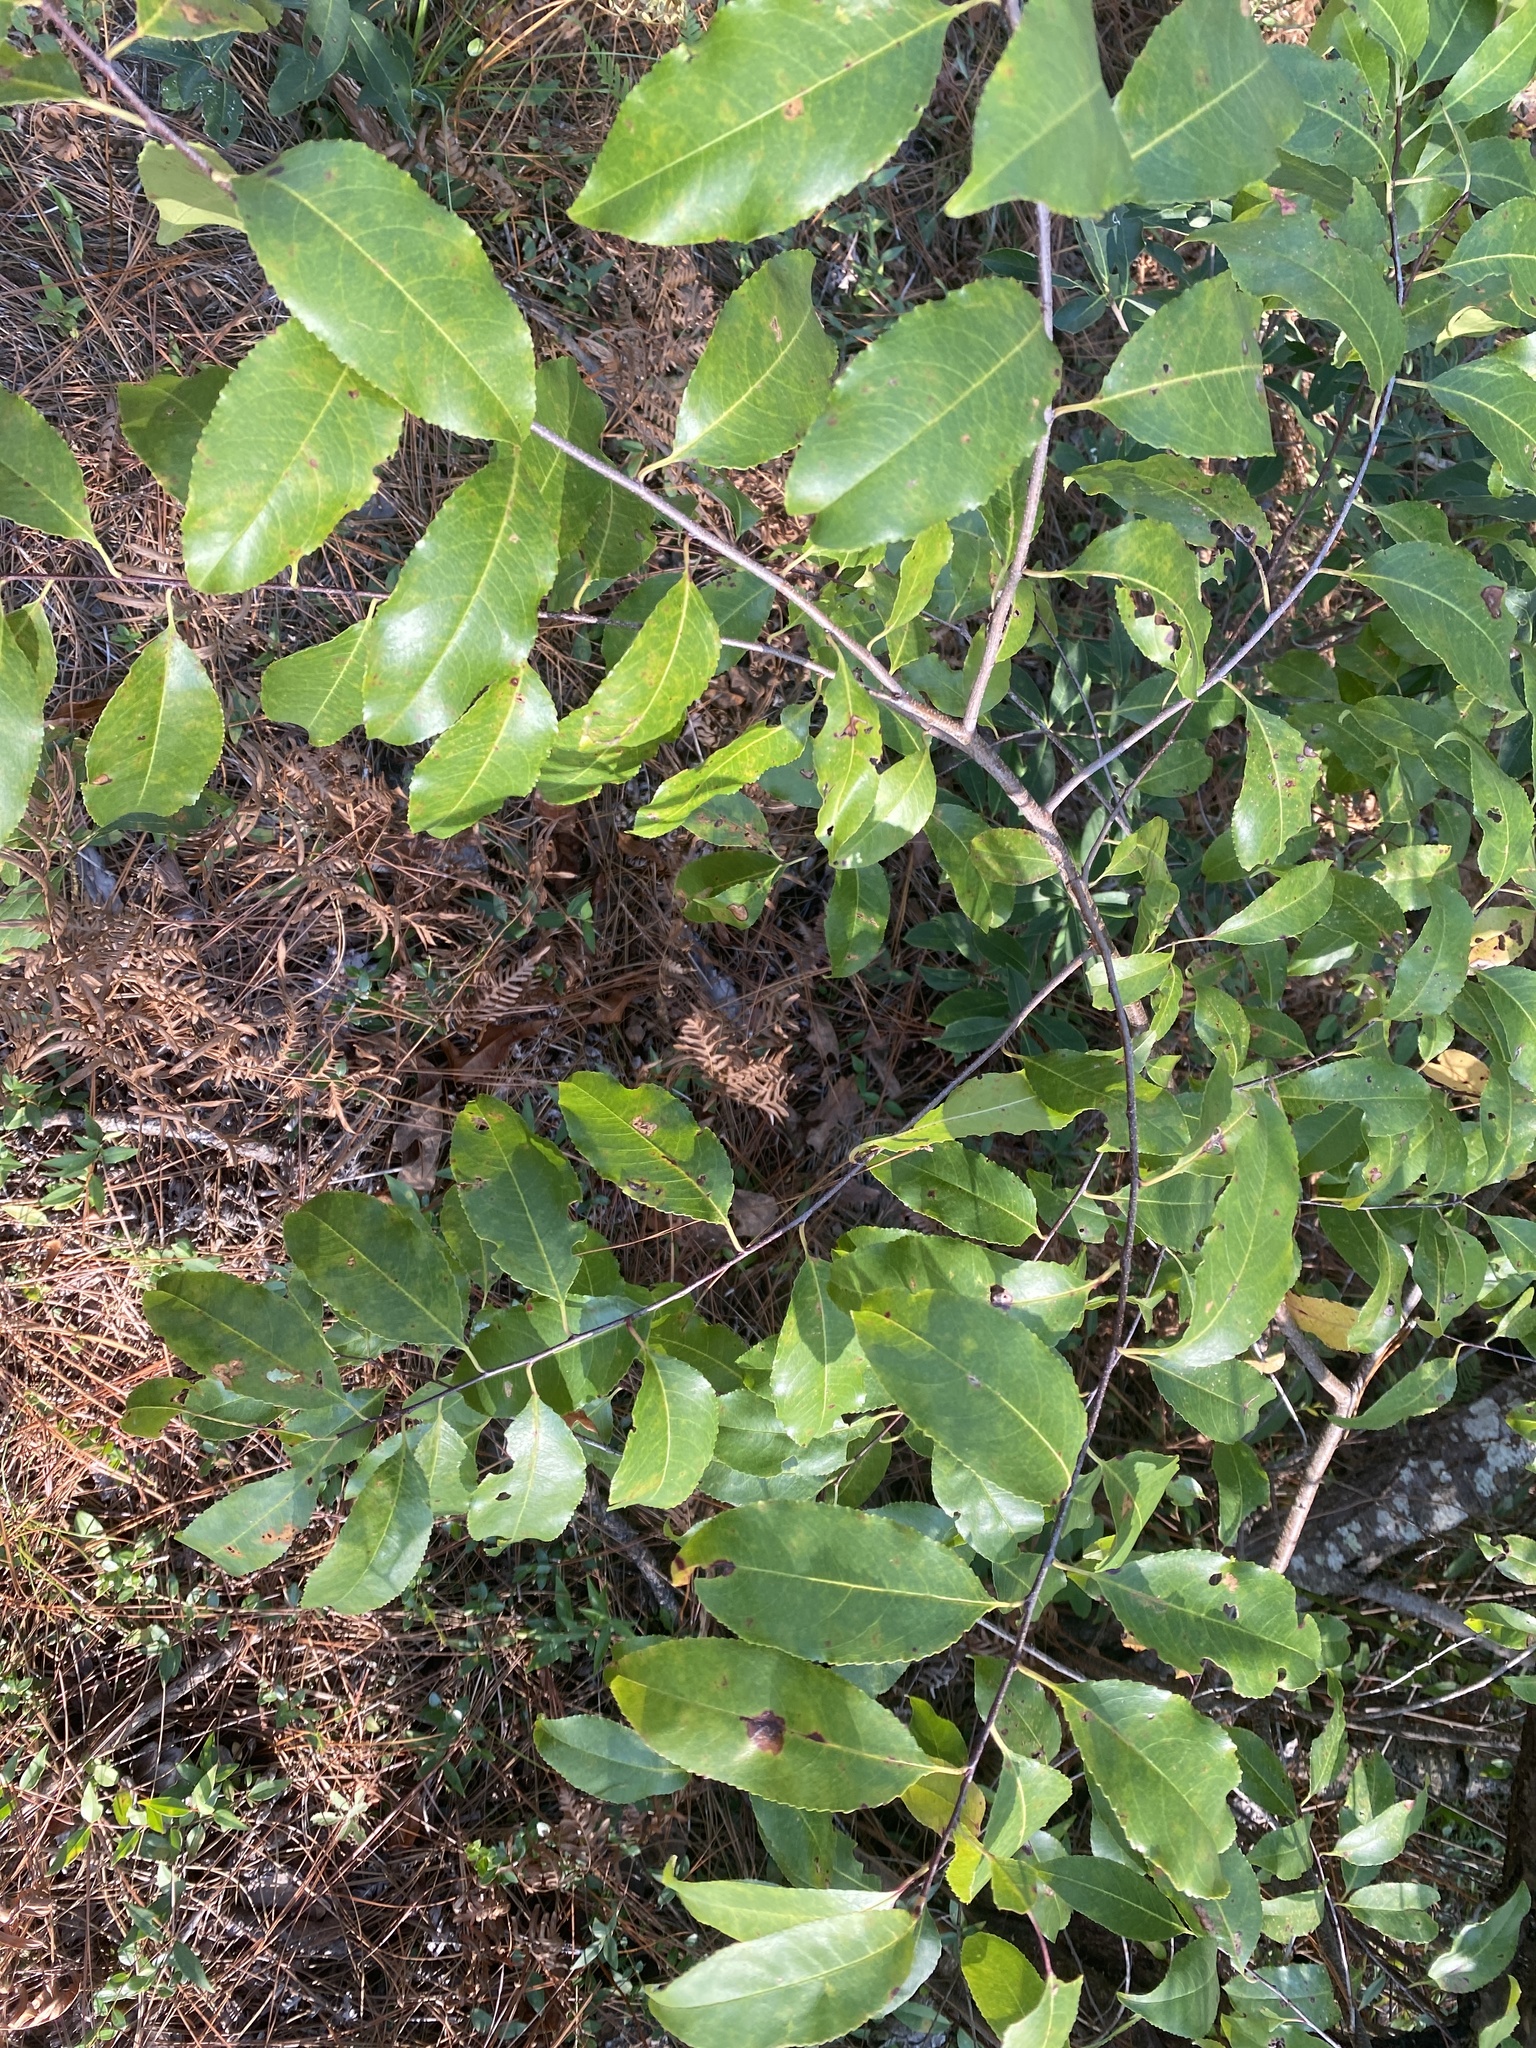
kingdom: Plantae
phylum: Tracheophyta
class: Magnoliopsida
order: Rosales
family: Rosaceae
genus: Prunus
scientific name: Prunus serotina
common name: Black cherry
